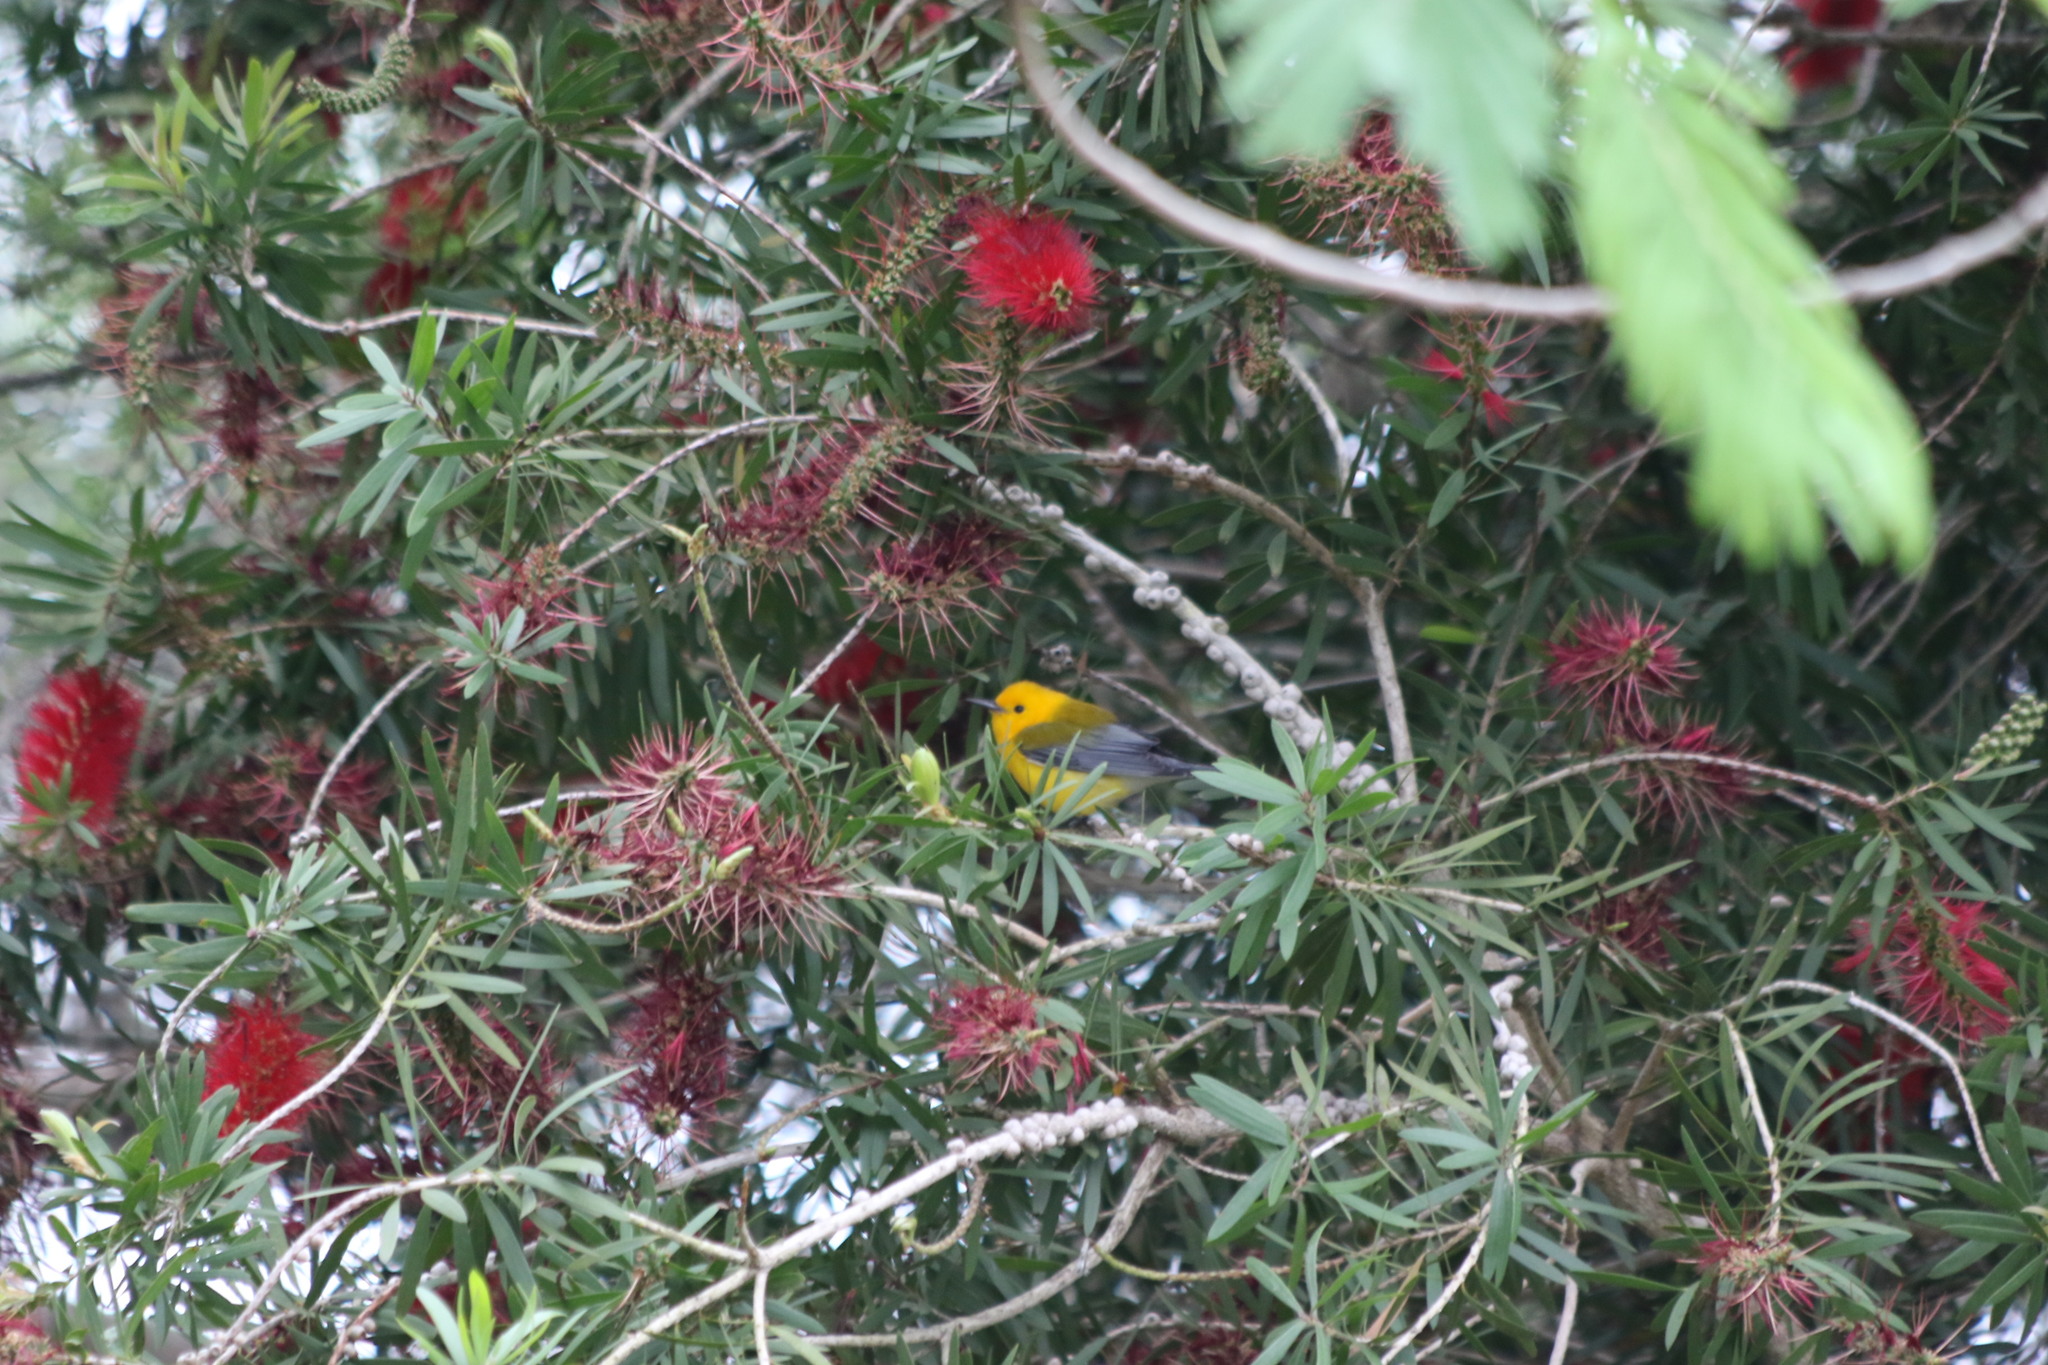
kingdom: Animalia
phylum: Chordata
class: Aves
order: Passeriformes
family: Parulidae
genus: Protonotaria
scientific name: Protonotaria citrea
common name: Prothonotary warbler
